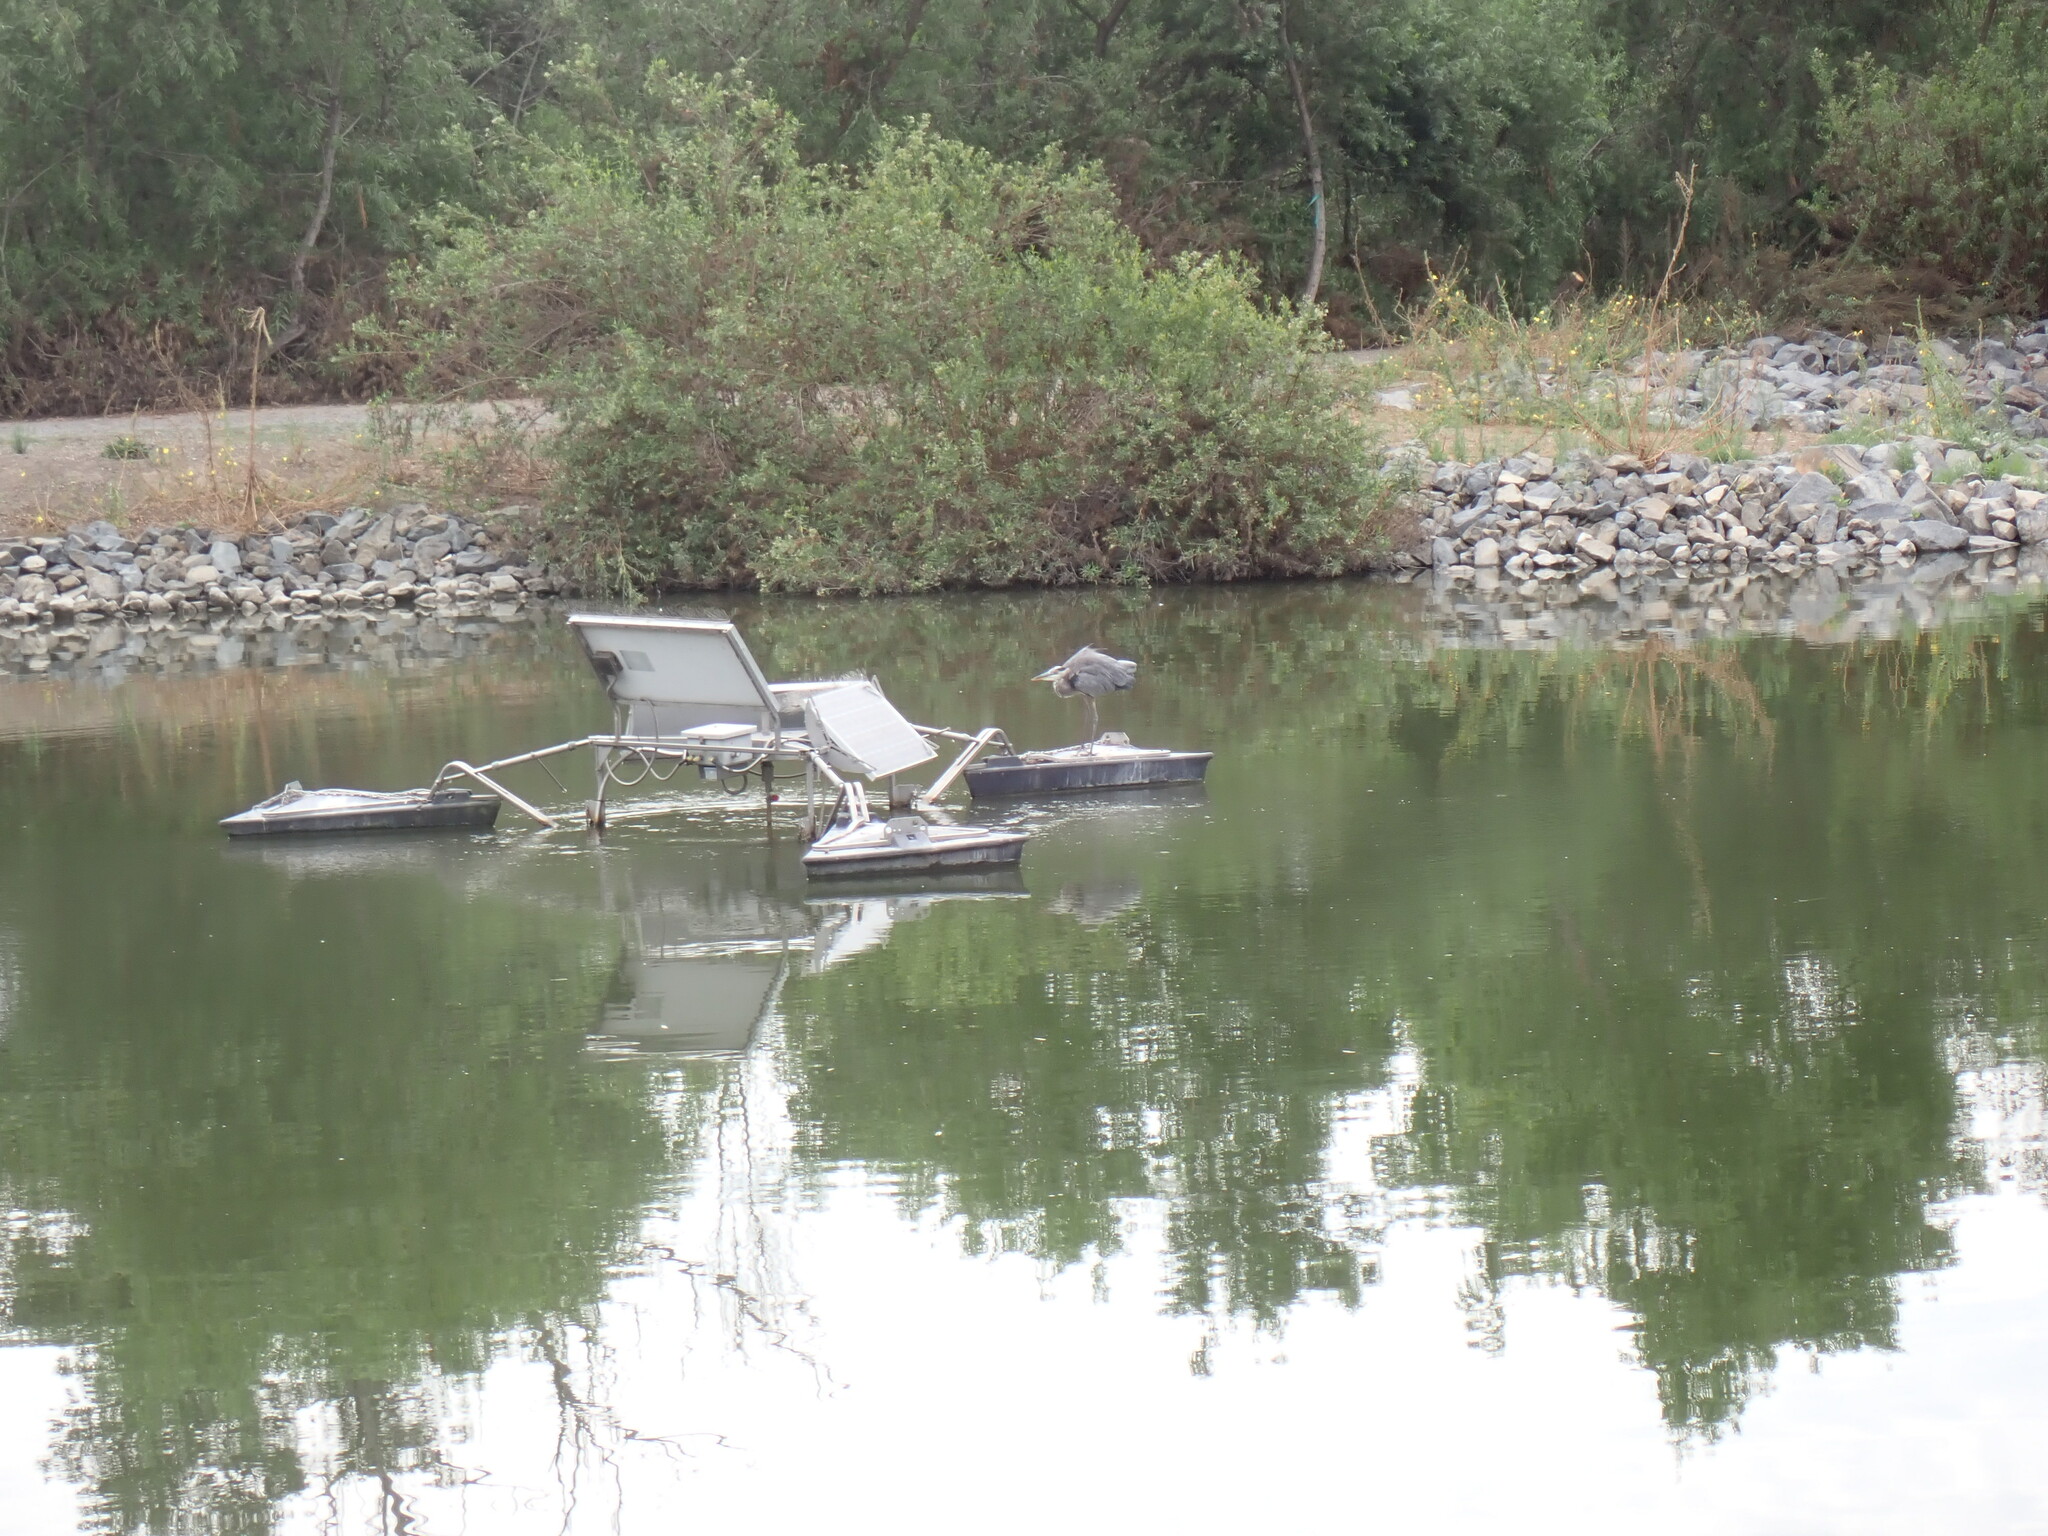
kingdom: Animalia
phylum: Chordata
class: Aves
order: Pelecaniformes
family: Ardeidae
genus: Ardea
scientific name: Ardea herodias
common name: Great blue heron
